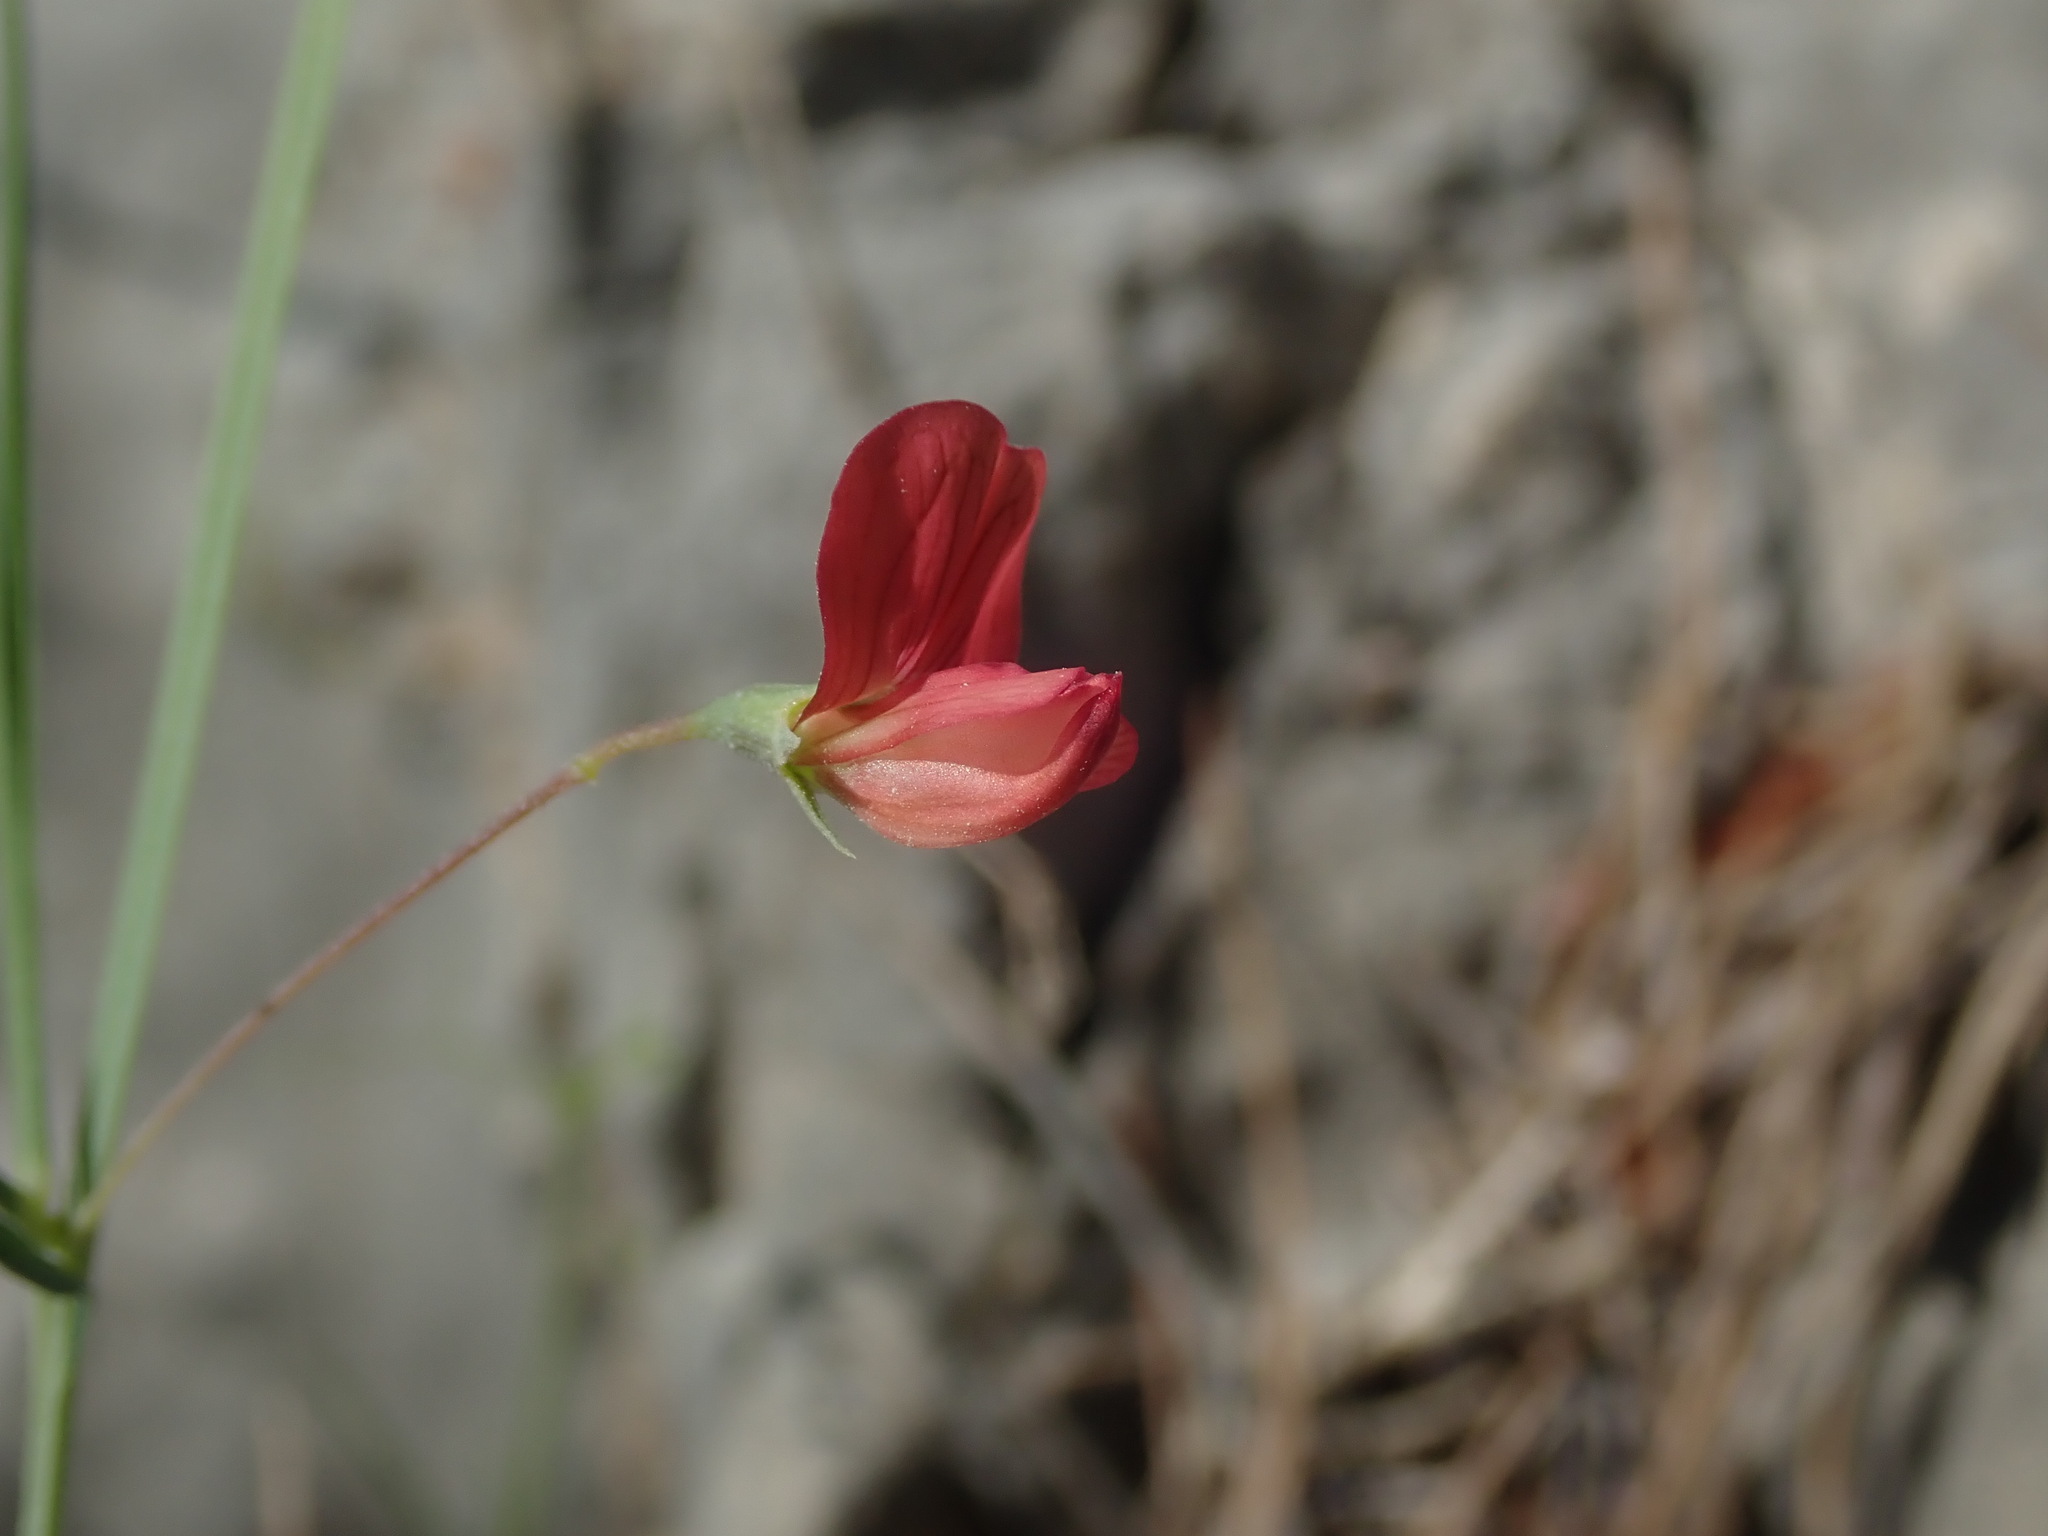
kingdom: Plantae
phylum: Tracheophyta
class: Magnoliopsida
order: Fabales
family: Fabaceae
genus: Lathyrus
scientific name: Lathyrus setifolius
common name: Brown vetchling
